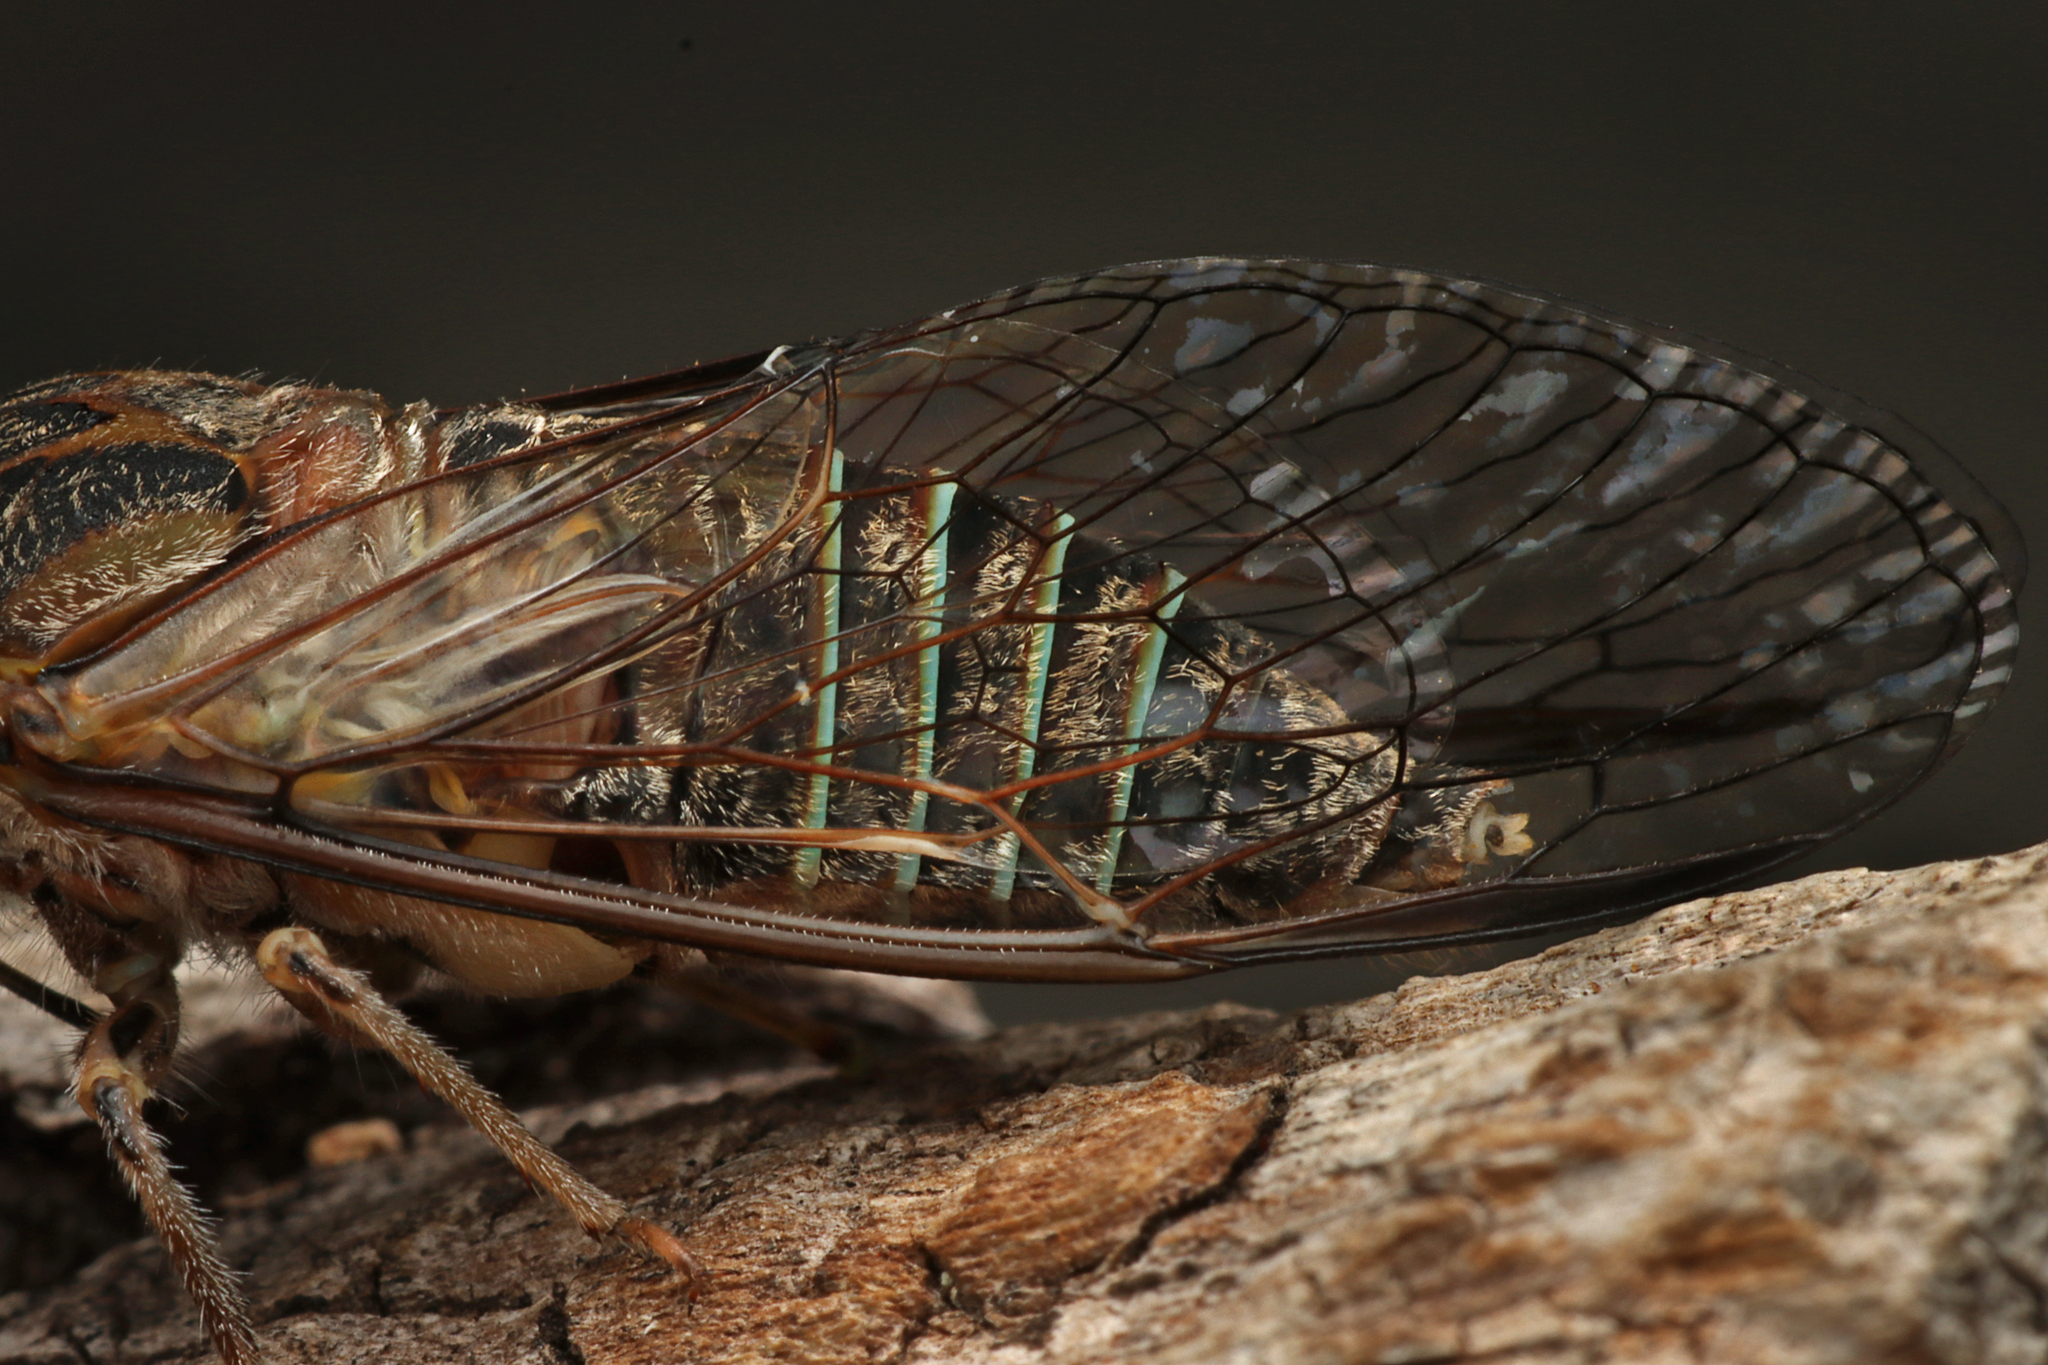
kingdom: Animalia
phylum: Arthropoda
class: Insecta
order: Hemiptera
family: Cicadidae
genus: Physeema
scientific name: Physeema labyrinthica
